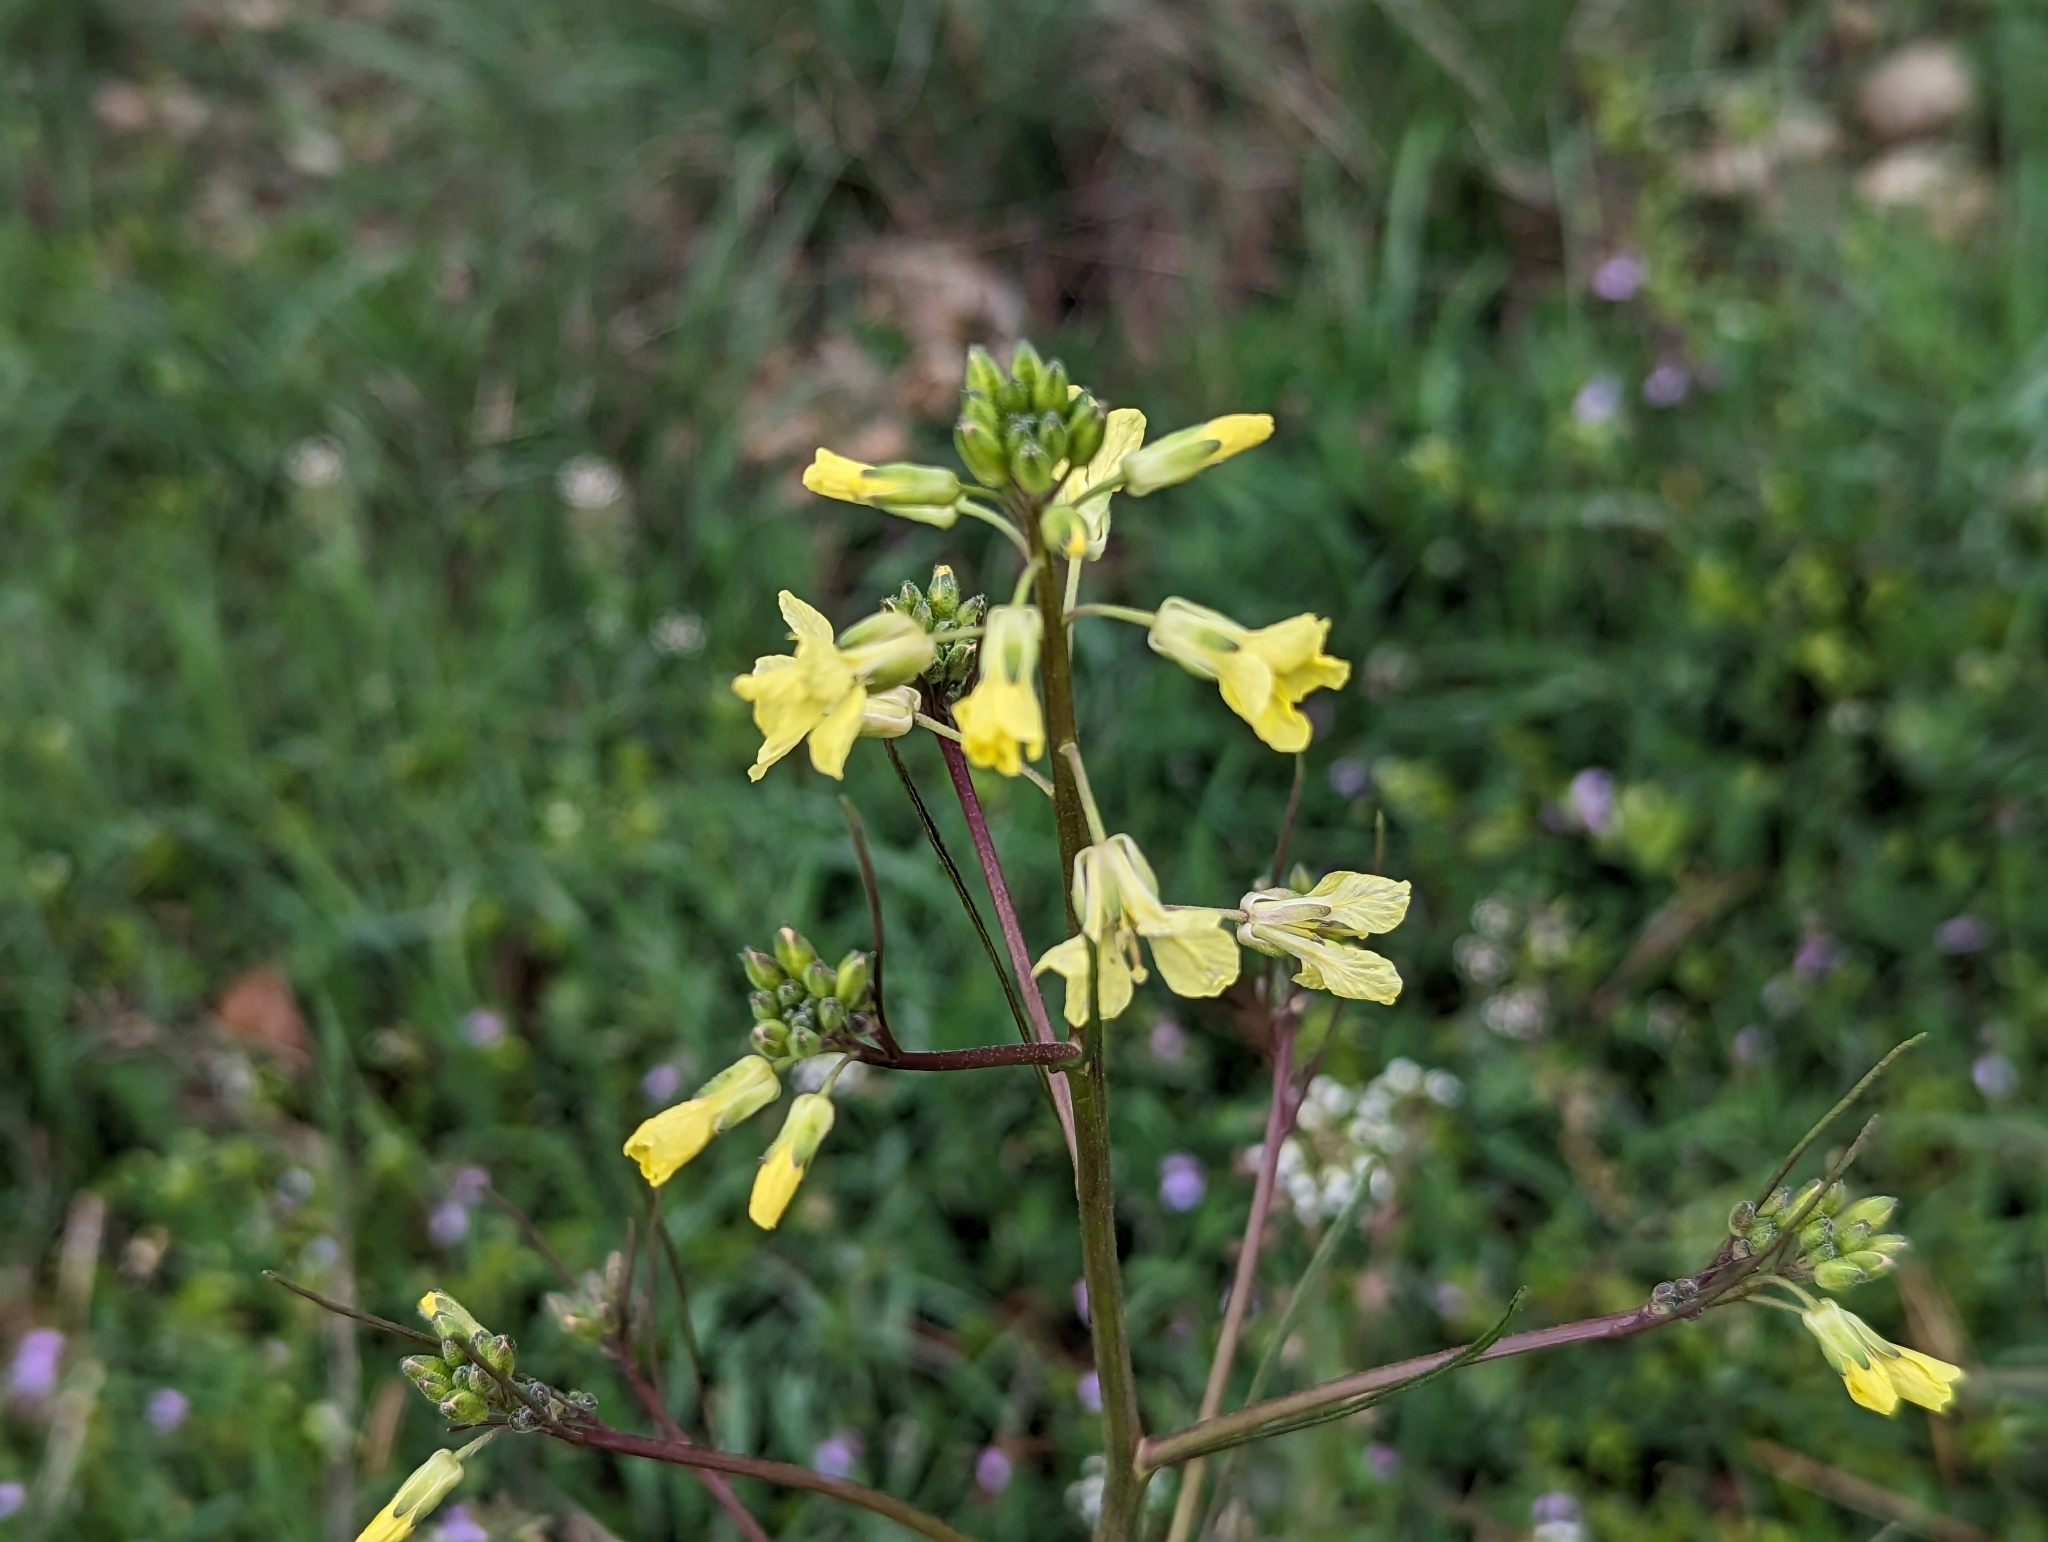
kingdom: Plantae
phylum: Tracheophyta
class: Magnoliopsida
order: Brassicales
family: Brassicaceae
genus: Sisymbrium
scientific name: Sisymbrium orientale
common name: Eastern rocket
